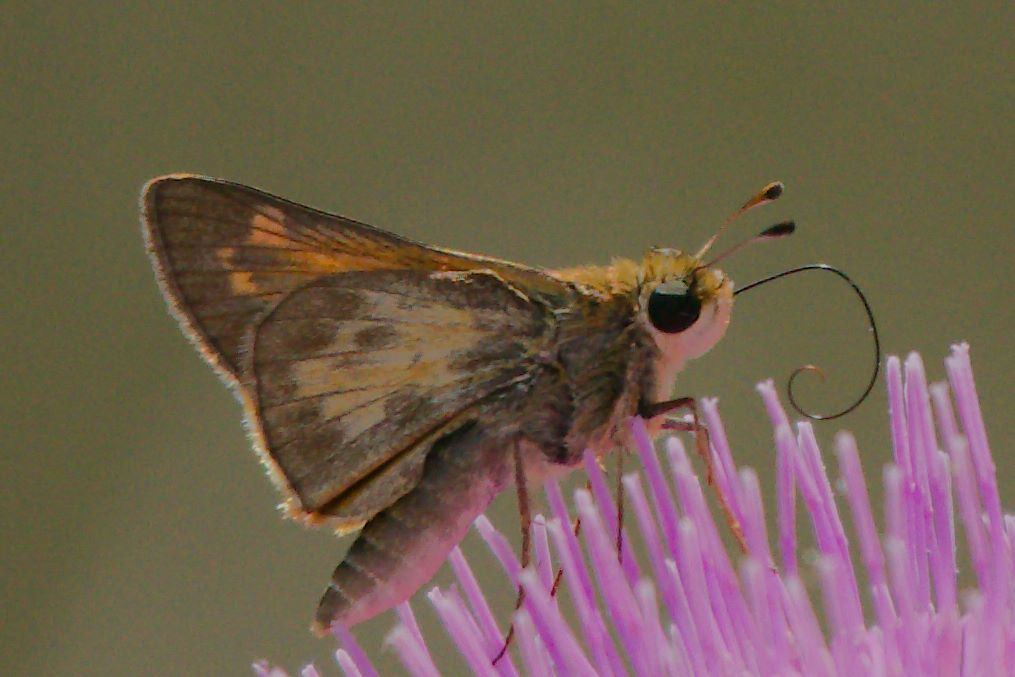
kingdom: Animalia
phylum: Arthropoda
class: Insecta
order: Lepidoptera
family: Hesperiidae
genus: Atalopedes
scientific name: Atalopedes
